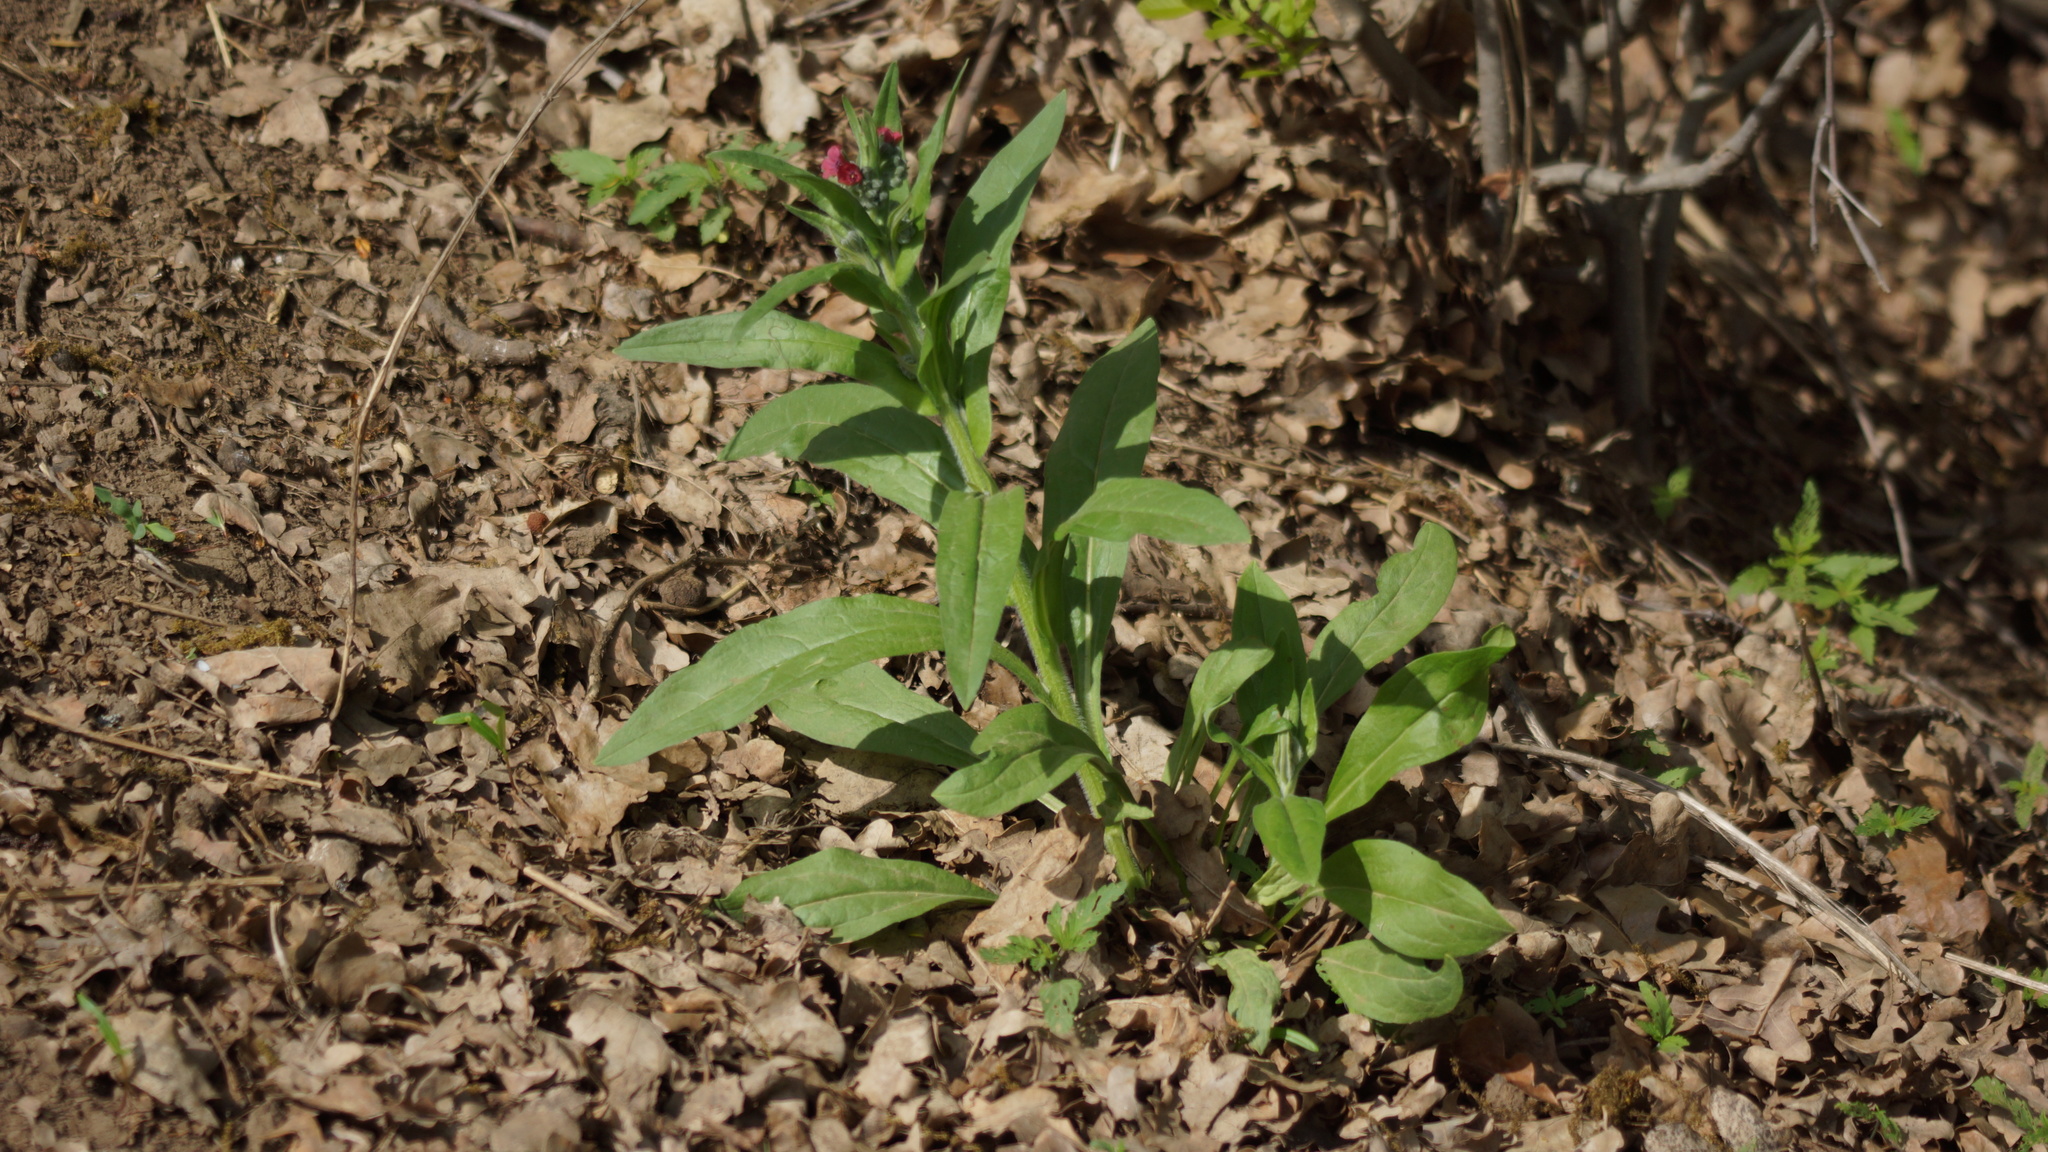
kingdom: Plantae
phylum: Tracheophyta
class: Magnoliopsida
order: Boraginales
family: Boraginaceae
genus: Cynoglossum
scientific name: Cynoglossum officinale
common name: Hound's-tongue
